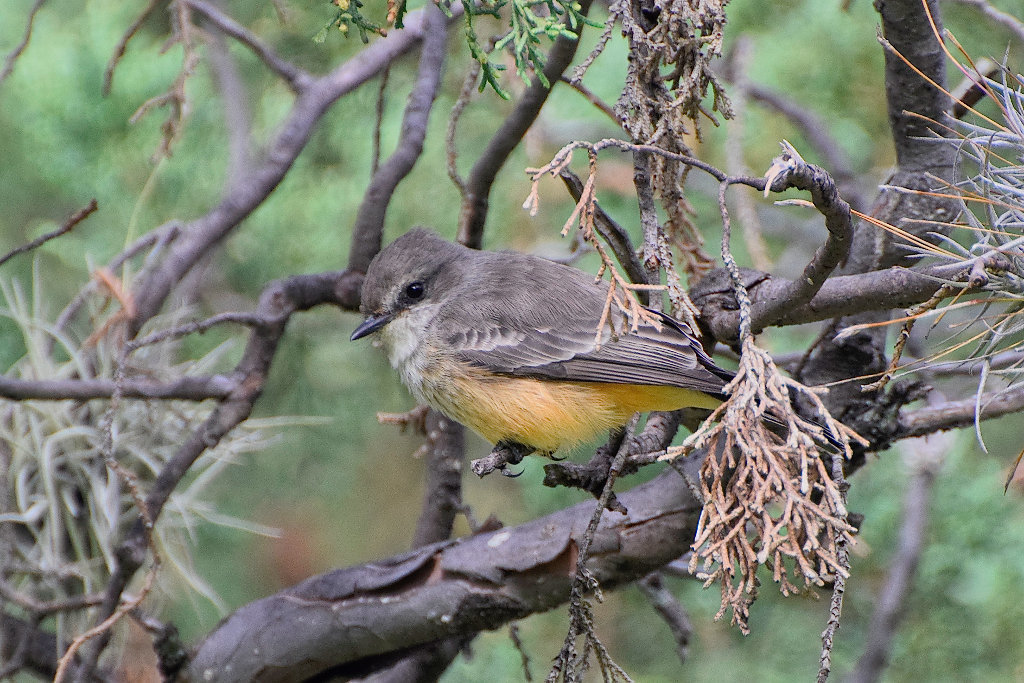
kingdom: Animalia
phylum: Chordata
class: Aves
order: Passeriformes
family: Tyrannidae
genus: Pyrocephalus
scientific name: Pyrocephalus rubinus
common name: Vermilion flycatcher
